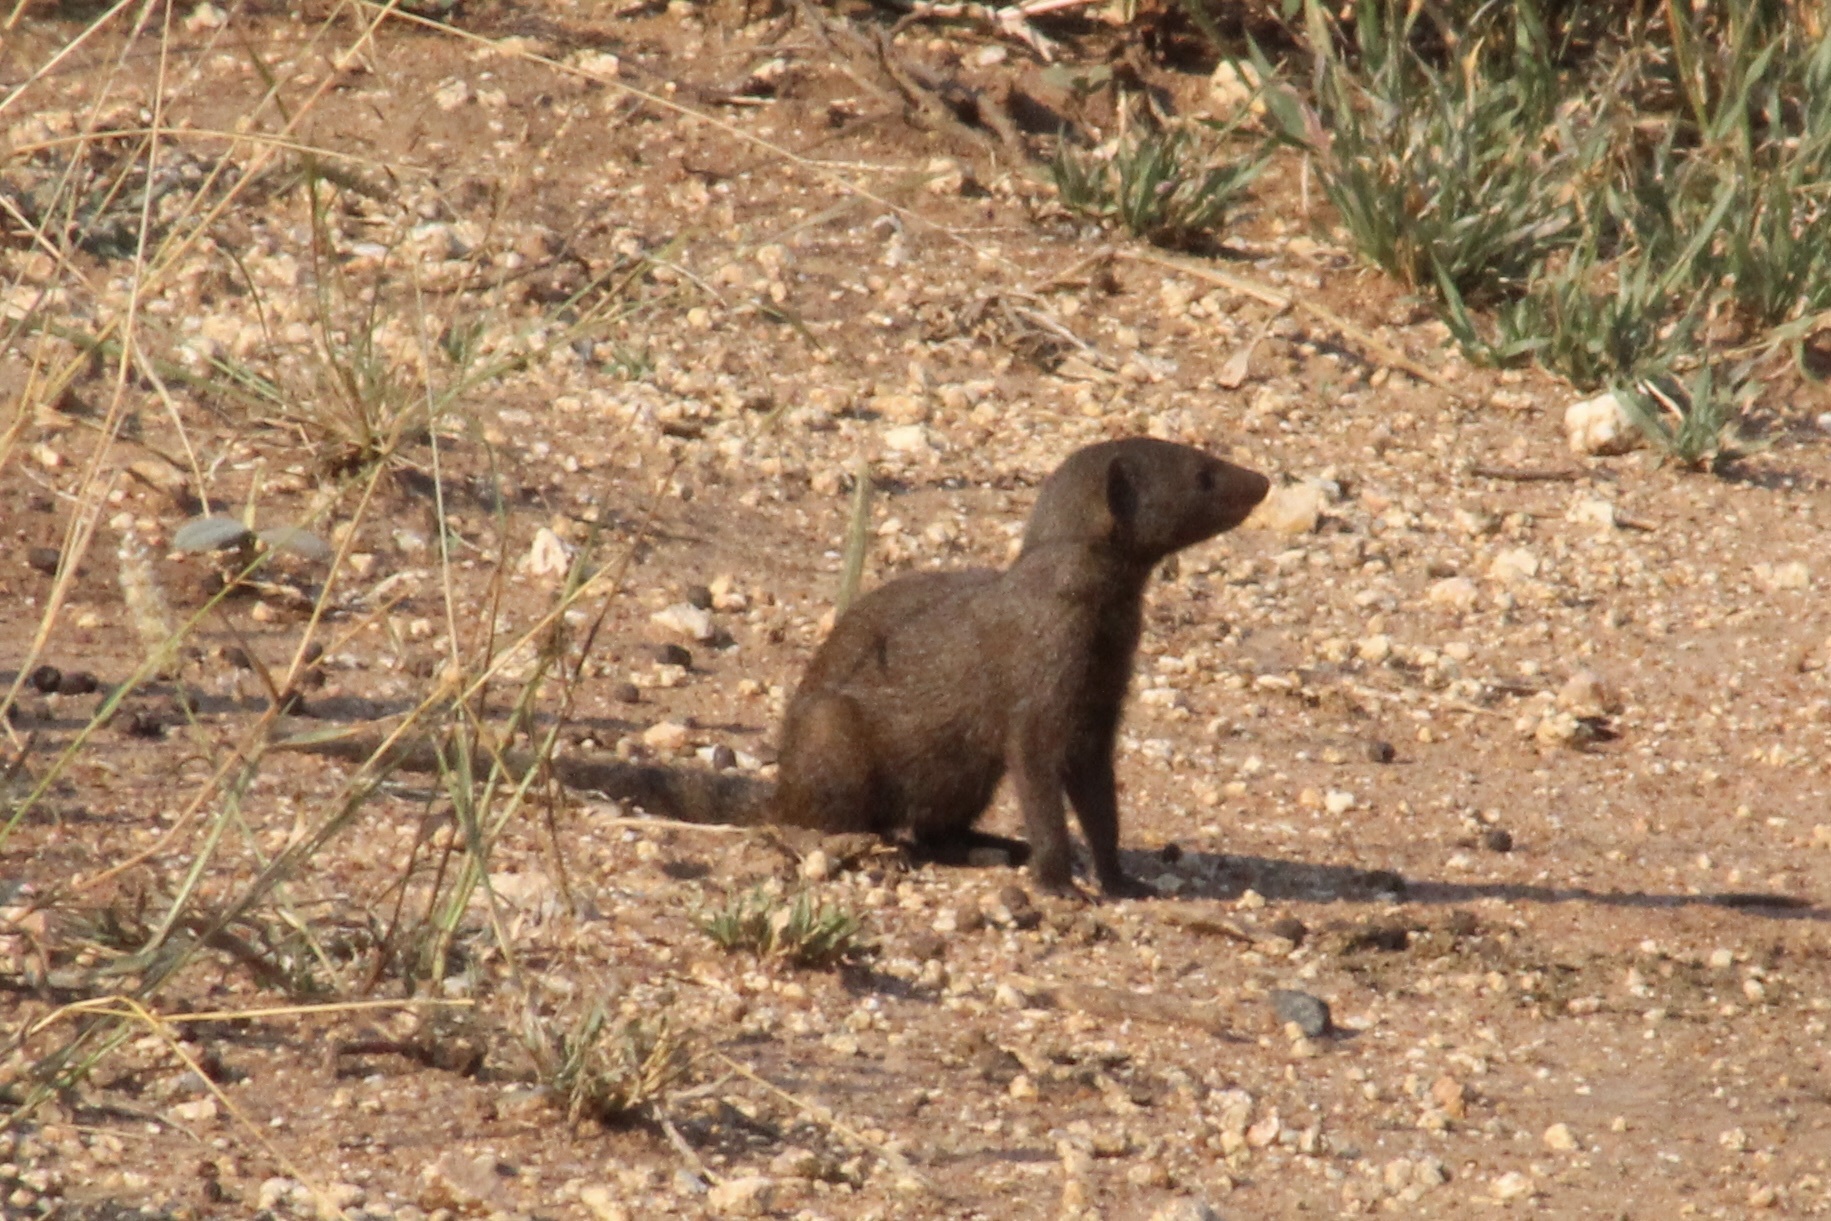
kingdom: Animalia
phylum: Chordata
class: Mammalia
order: Carnivora
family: Herpestidae
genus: Helogale
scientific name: Helogale parvula
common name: Common dwarf mongoose
